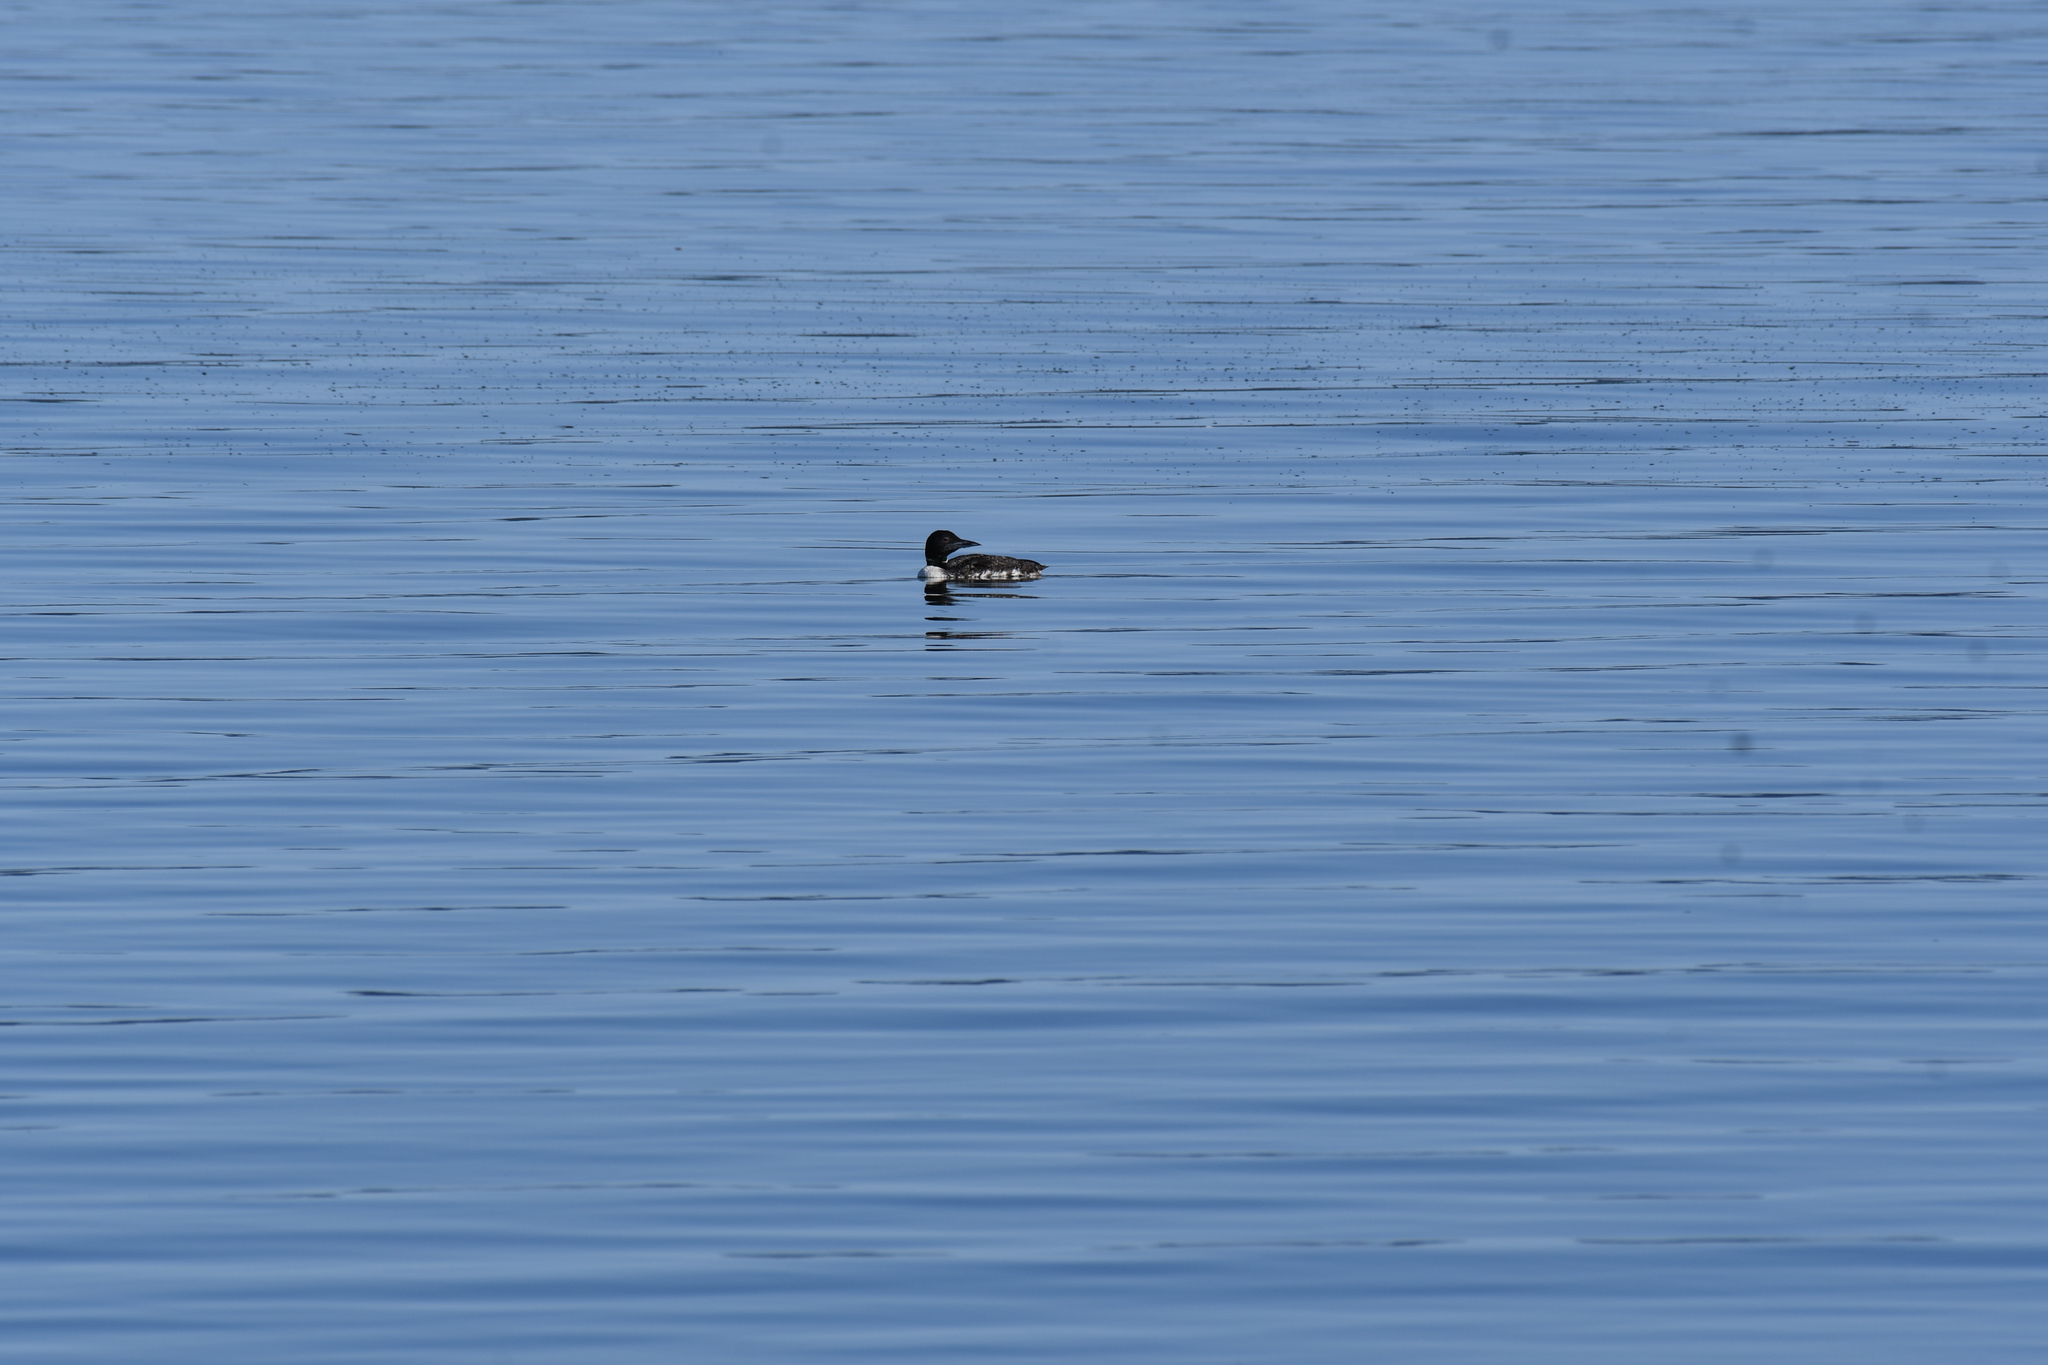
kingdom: Animalia
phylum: Chordata
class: Aves
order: Gaviiformes
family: Gaviidae
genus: Gavia
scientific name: Gavia immer
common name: Common loon
